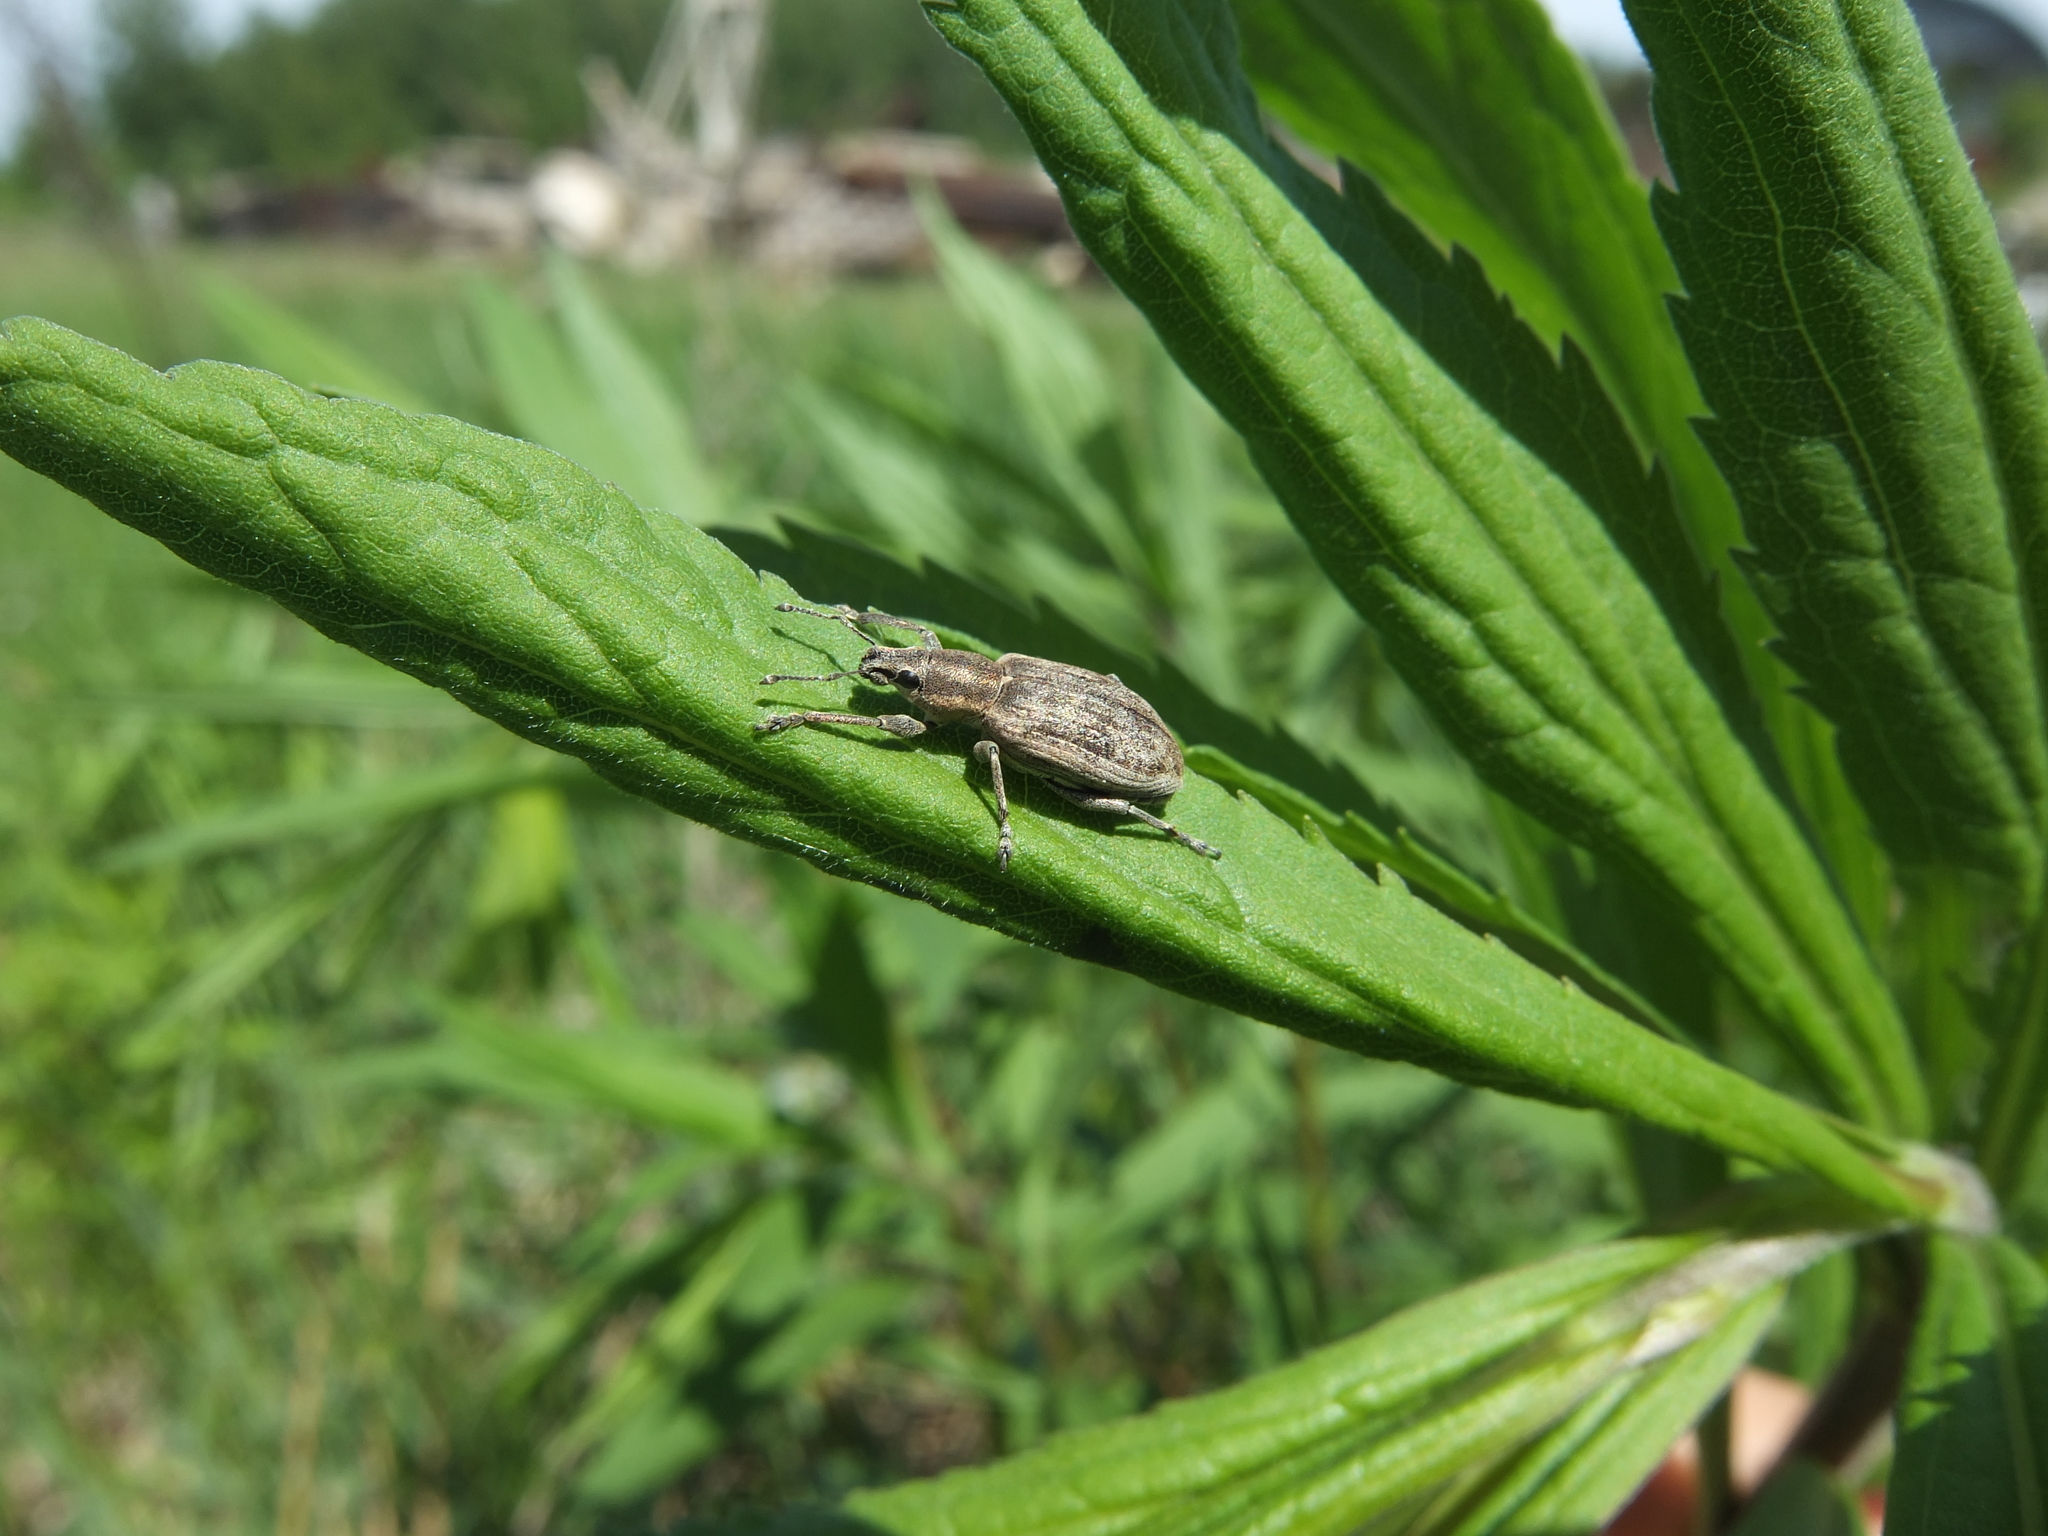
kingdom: Animalia
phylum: Arthropoda
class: Insecta
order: Coleoptera
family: Curculionidae
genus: Tanymecus
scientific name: Tanymecus palliatus
